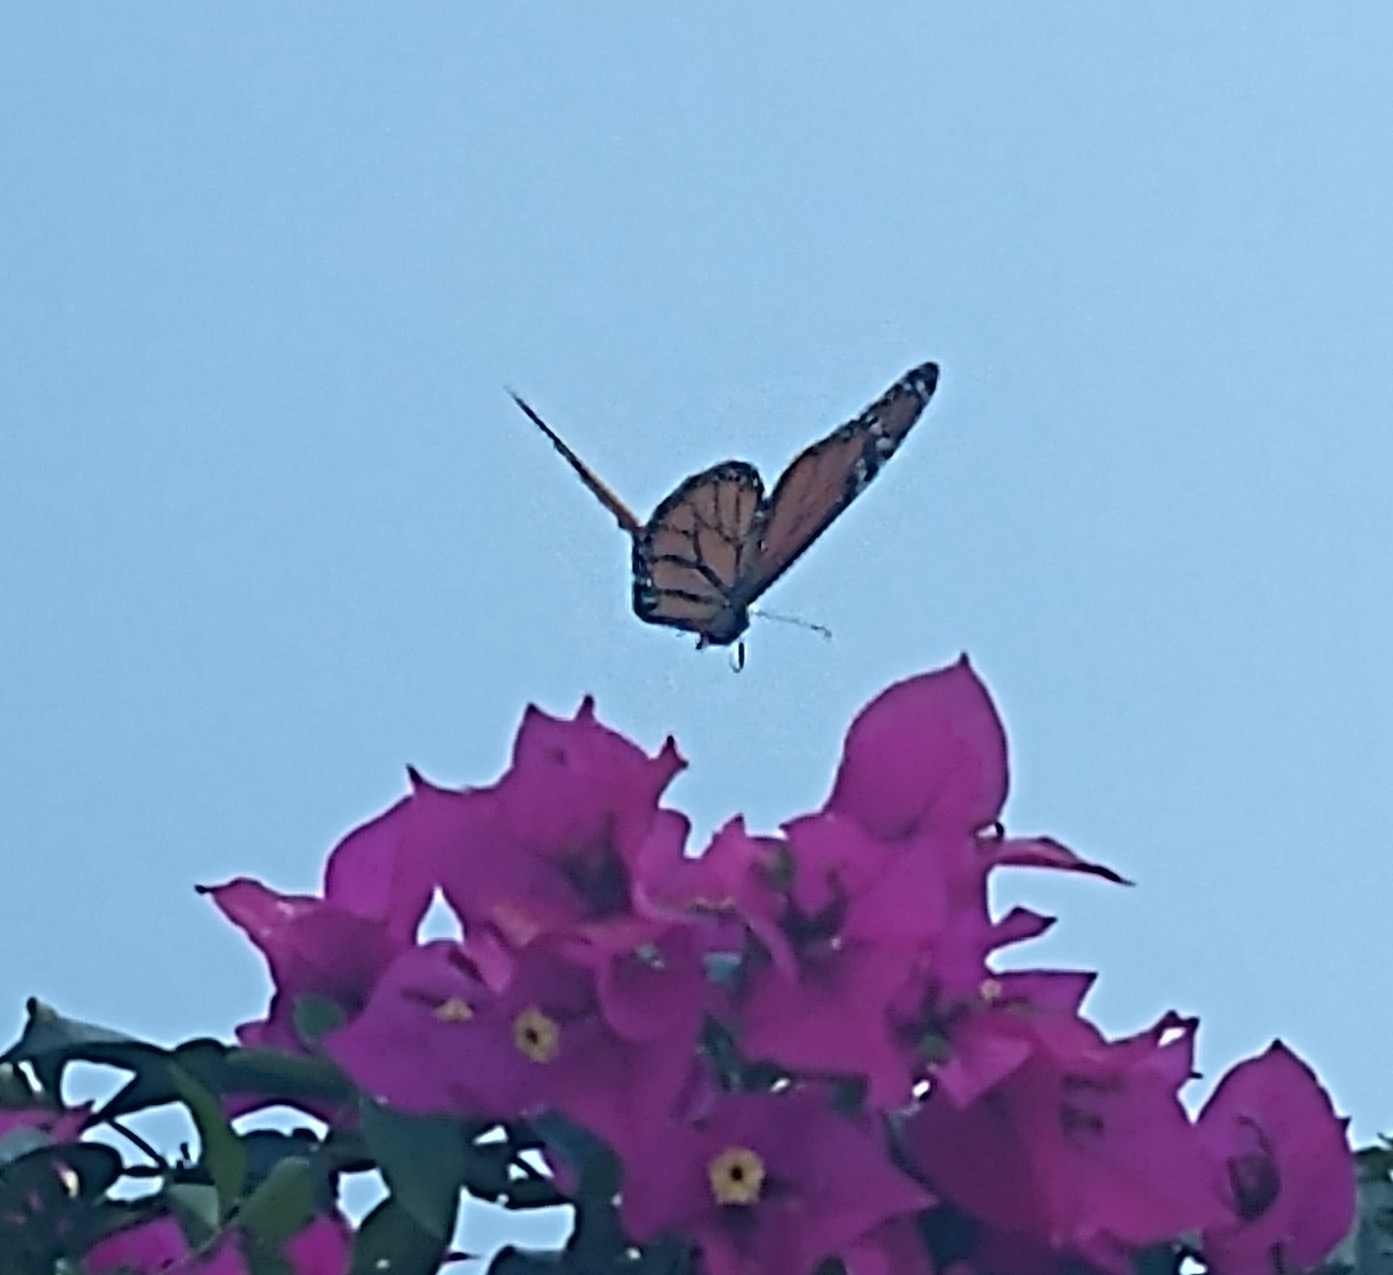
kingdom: Animalia
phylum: Arthropoda
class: Insecta
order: Lepidoptera
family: Nymphalidae
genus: Danaus
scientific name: Danaus plexippus
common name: Monarch
